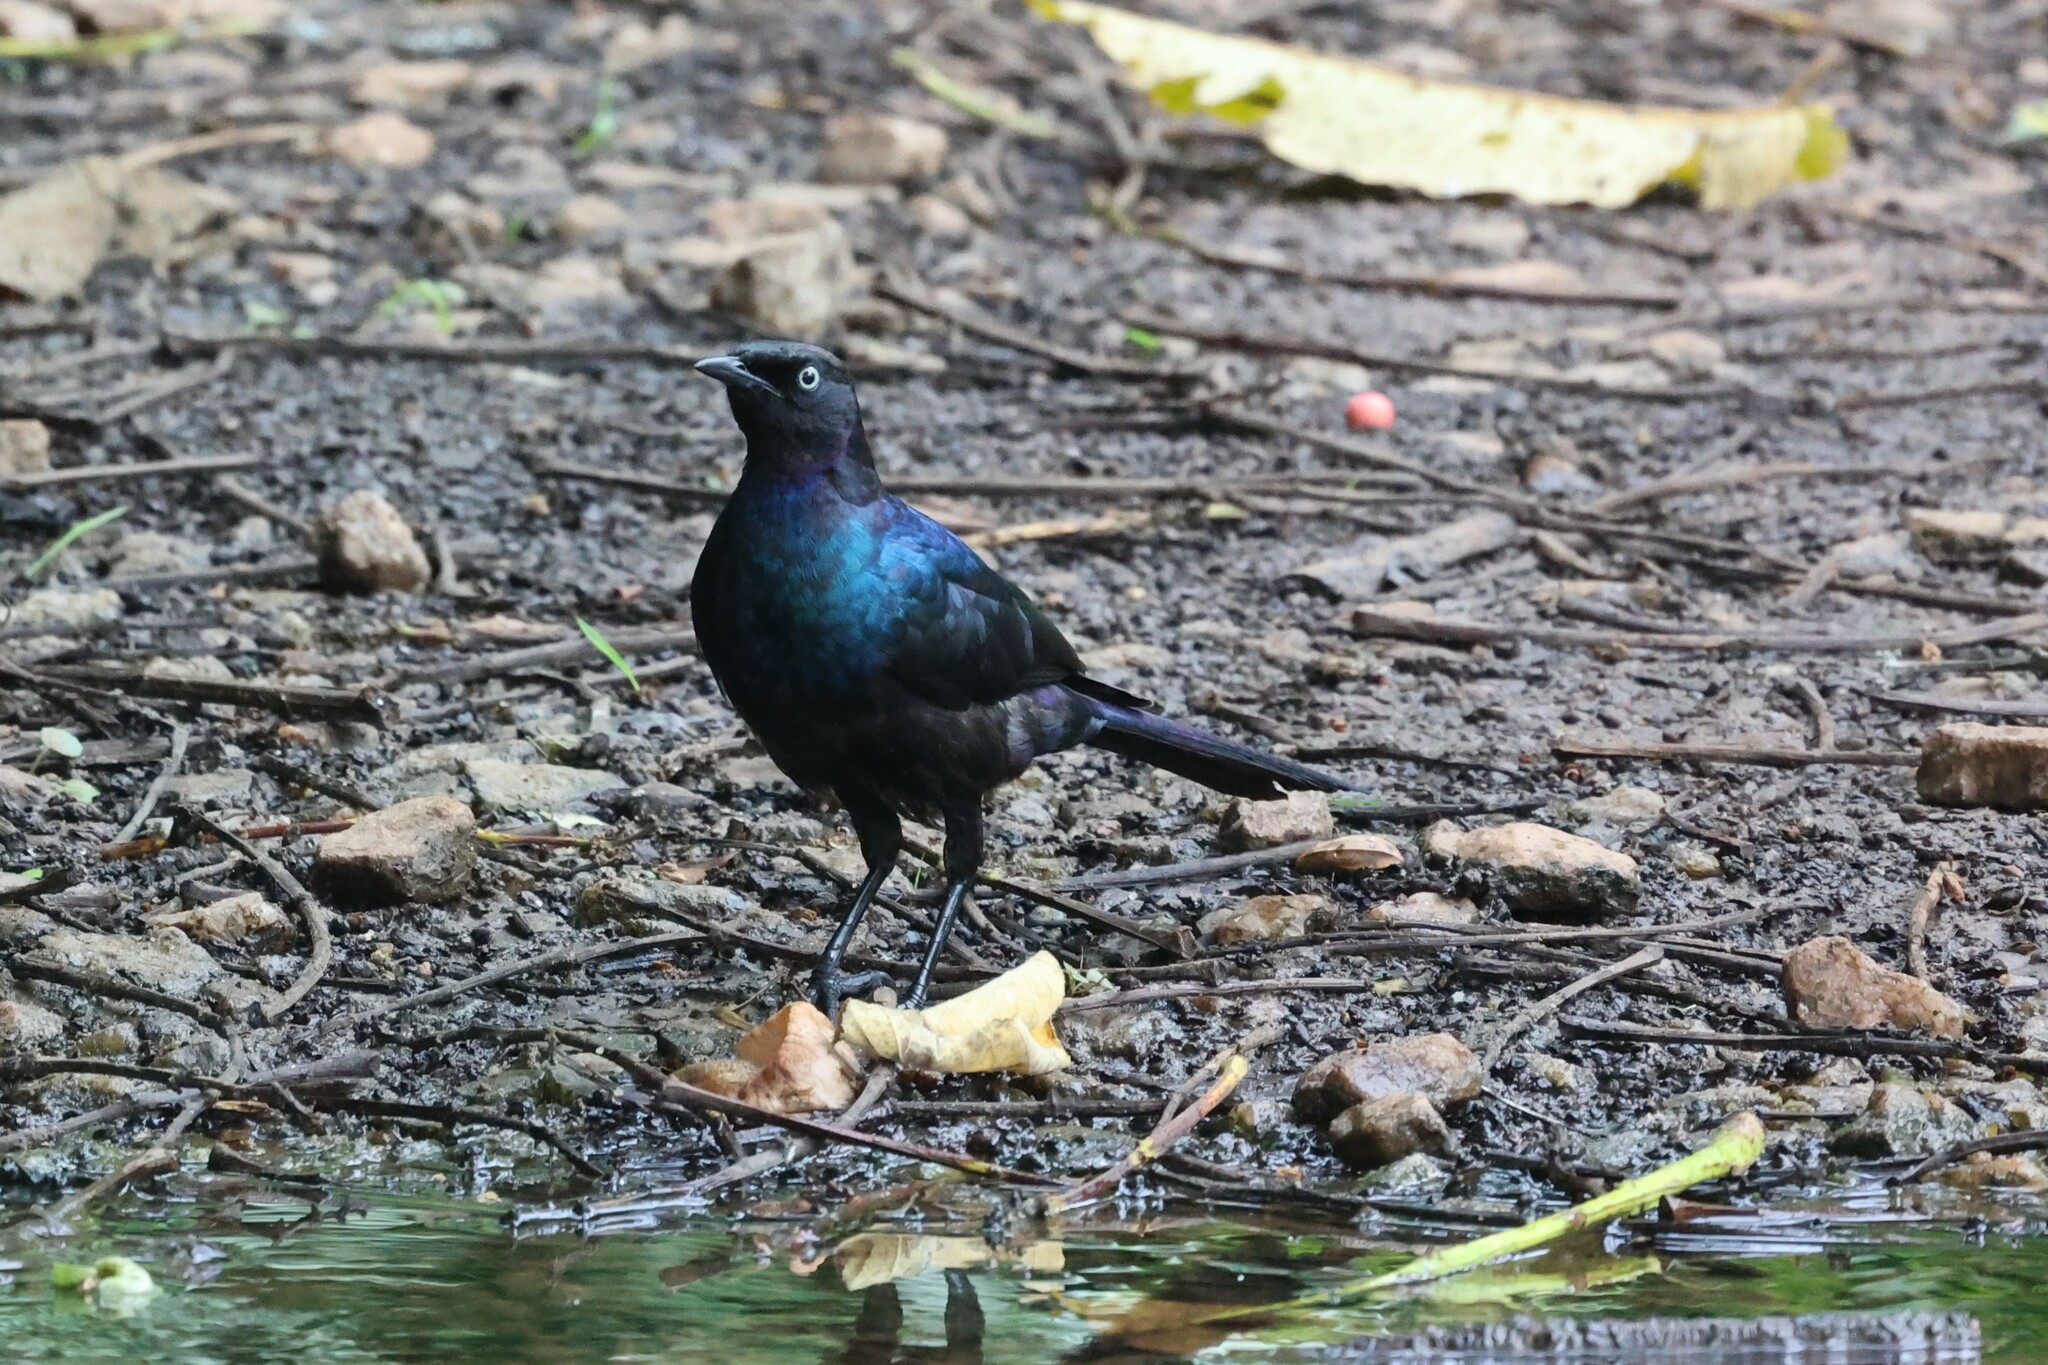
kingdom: Animalia
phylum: Chordata
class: Aves
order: Passeriformes
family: Sturnidae
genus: Lamprotornis
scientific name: Lamprotornis purpuroptera
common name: Rüppell's starling
